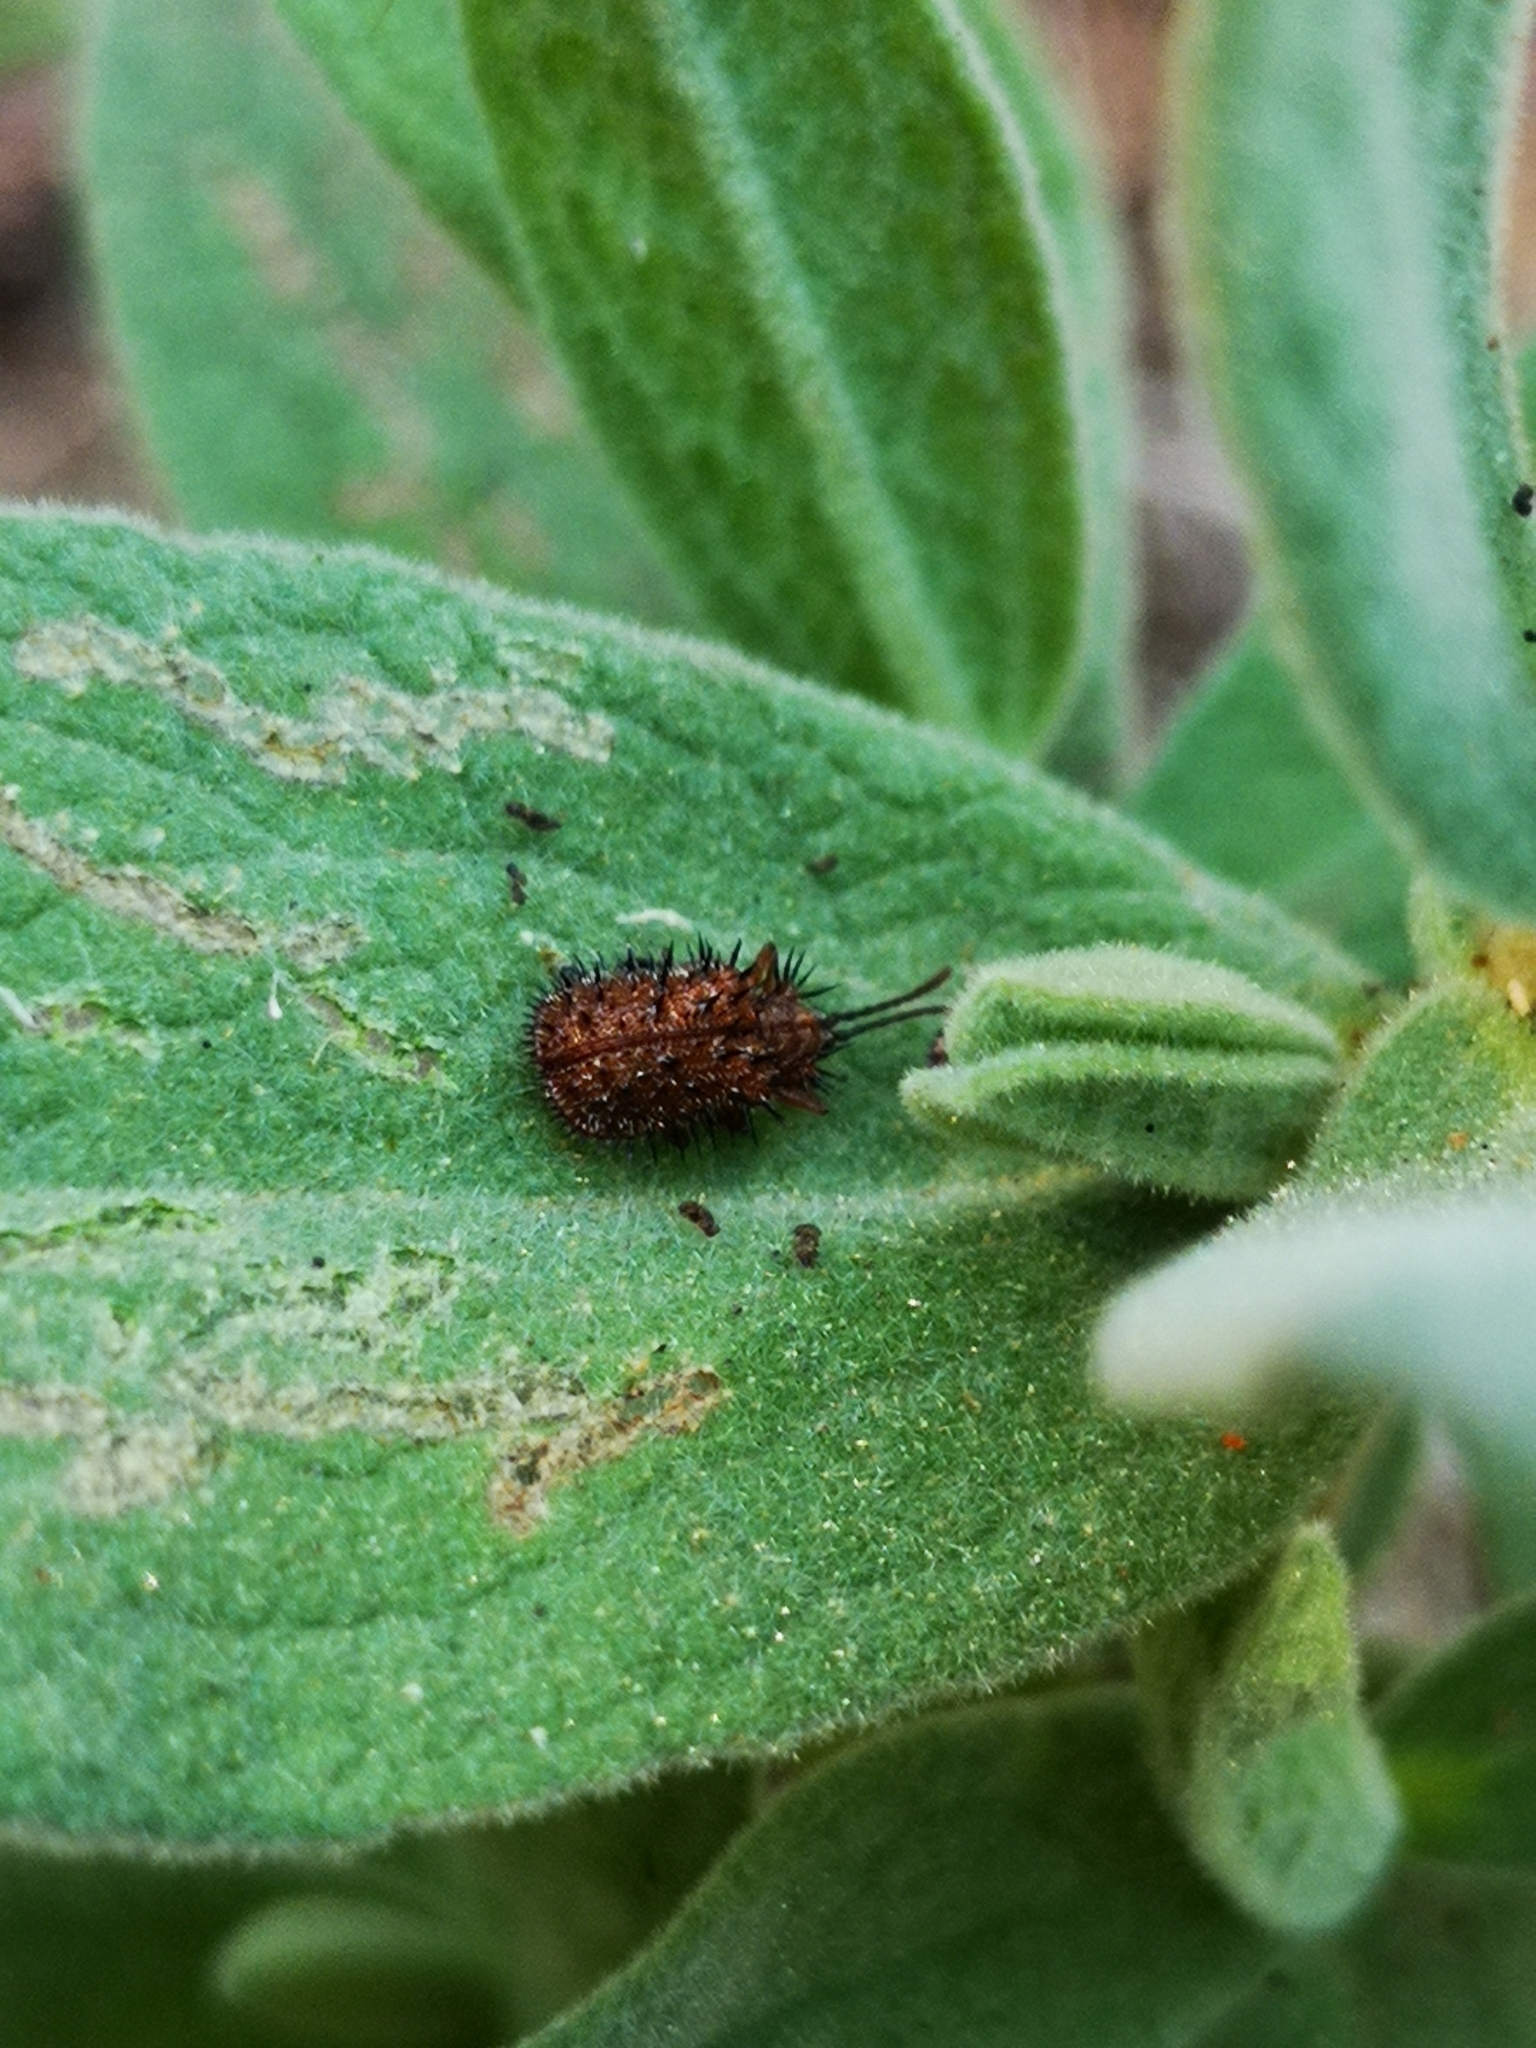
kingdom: Animalia
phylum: Arthropoda
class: Insecta
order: Coleoptera
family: Chrysomelidae
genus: Dicladispa
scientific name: Dicladispa testacea
